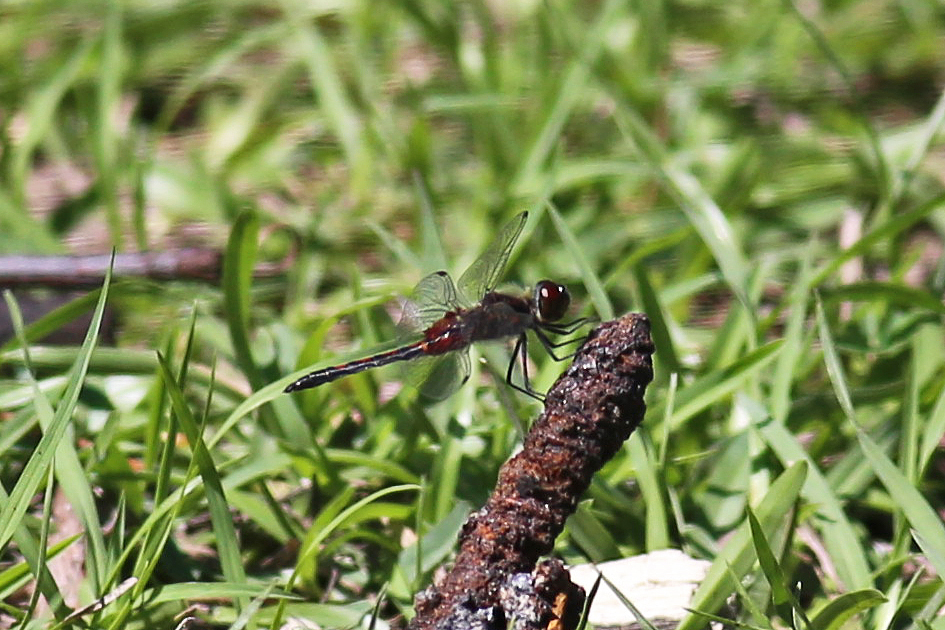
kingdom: Animalia
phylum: Arthropoda
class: Insecta
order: Odonata
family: Libellulidae
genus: Celithemis
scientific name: Celithemis ornata
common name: Ornate pennant
